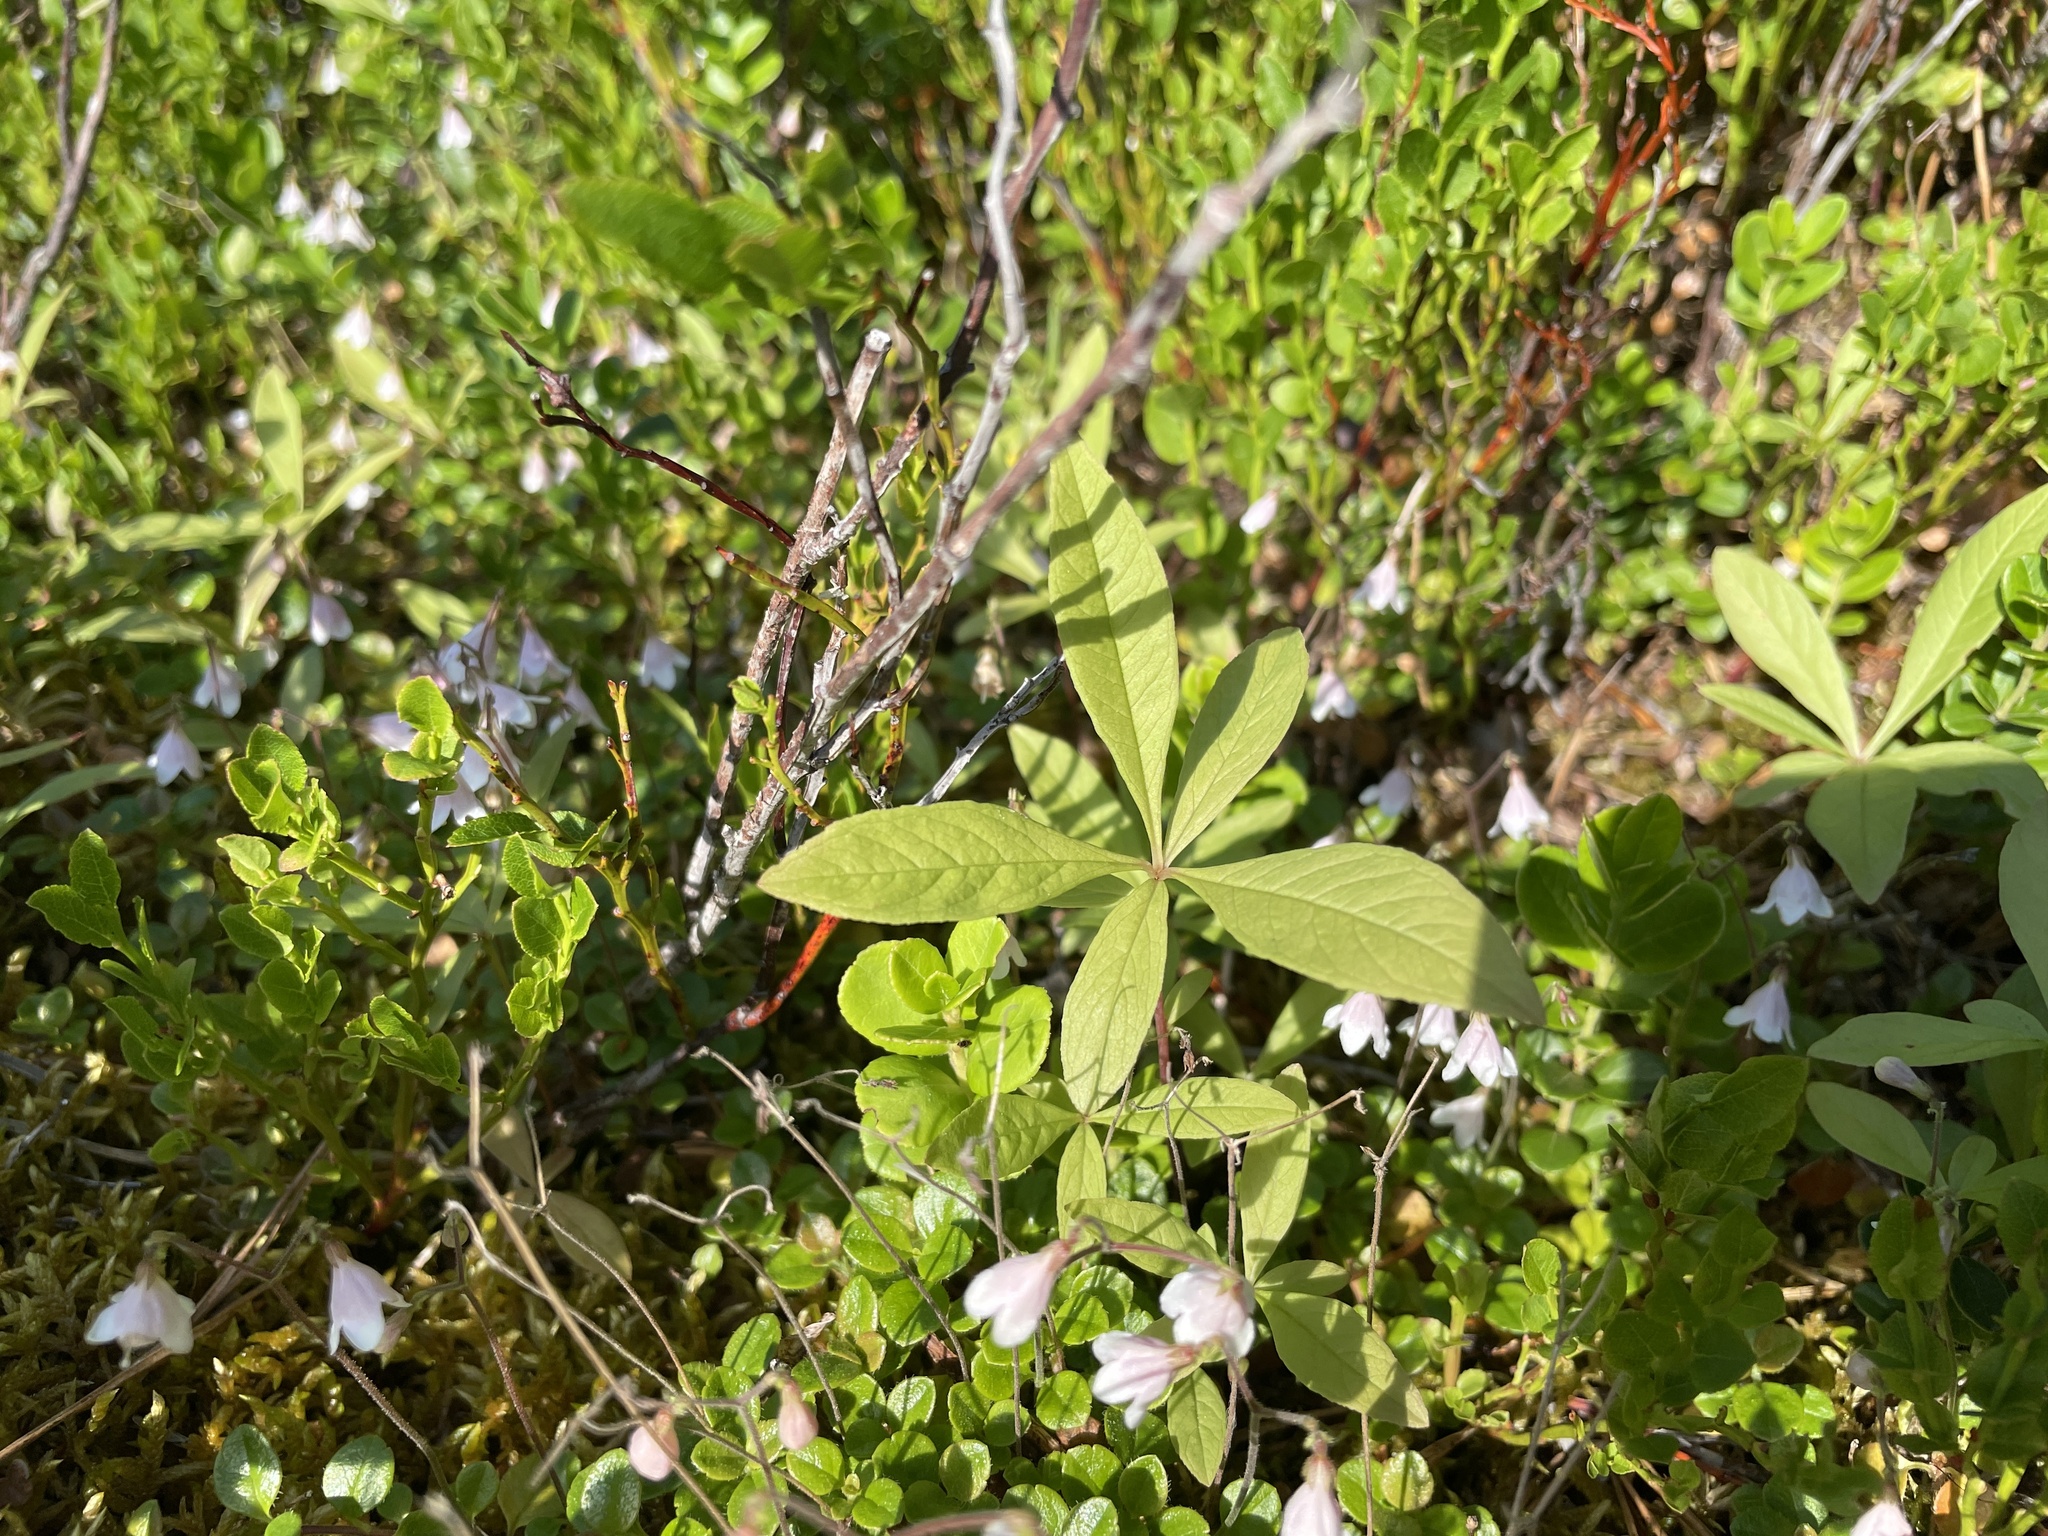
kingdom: Plantae
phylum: Tracheophyta
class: Magnoliopsida
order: Ericales
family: Primulaceae
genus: Lysimachia
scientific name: Lysimachia europaea
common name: Arctic starflower
